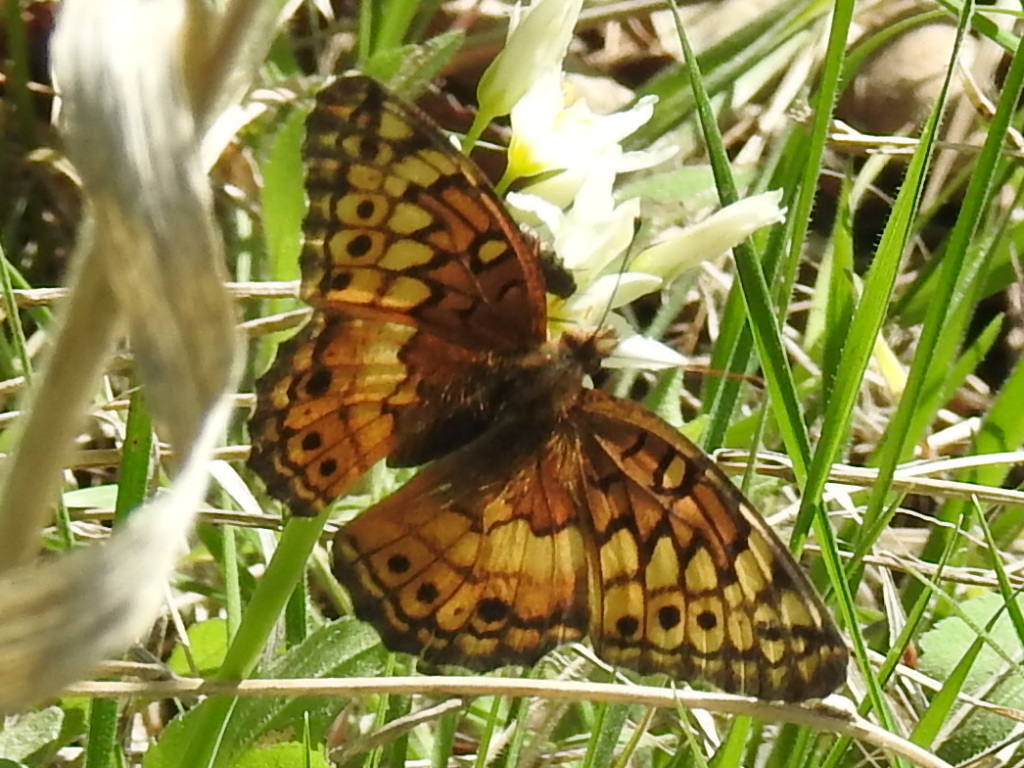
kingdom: Animalia
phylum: Arthropoda
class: Insecta
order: Lepidoptera
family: Nymphalidae
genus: Euptoieta
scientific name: Euptoieta claudia
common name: Variegated fritillary
